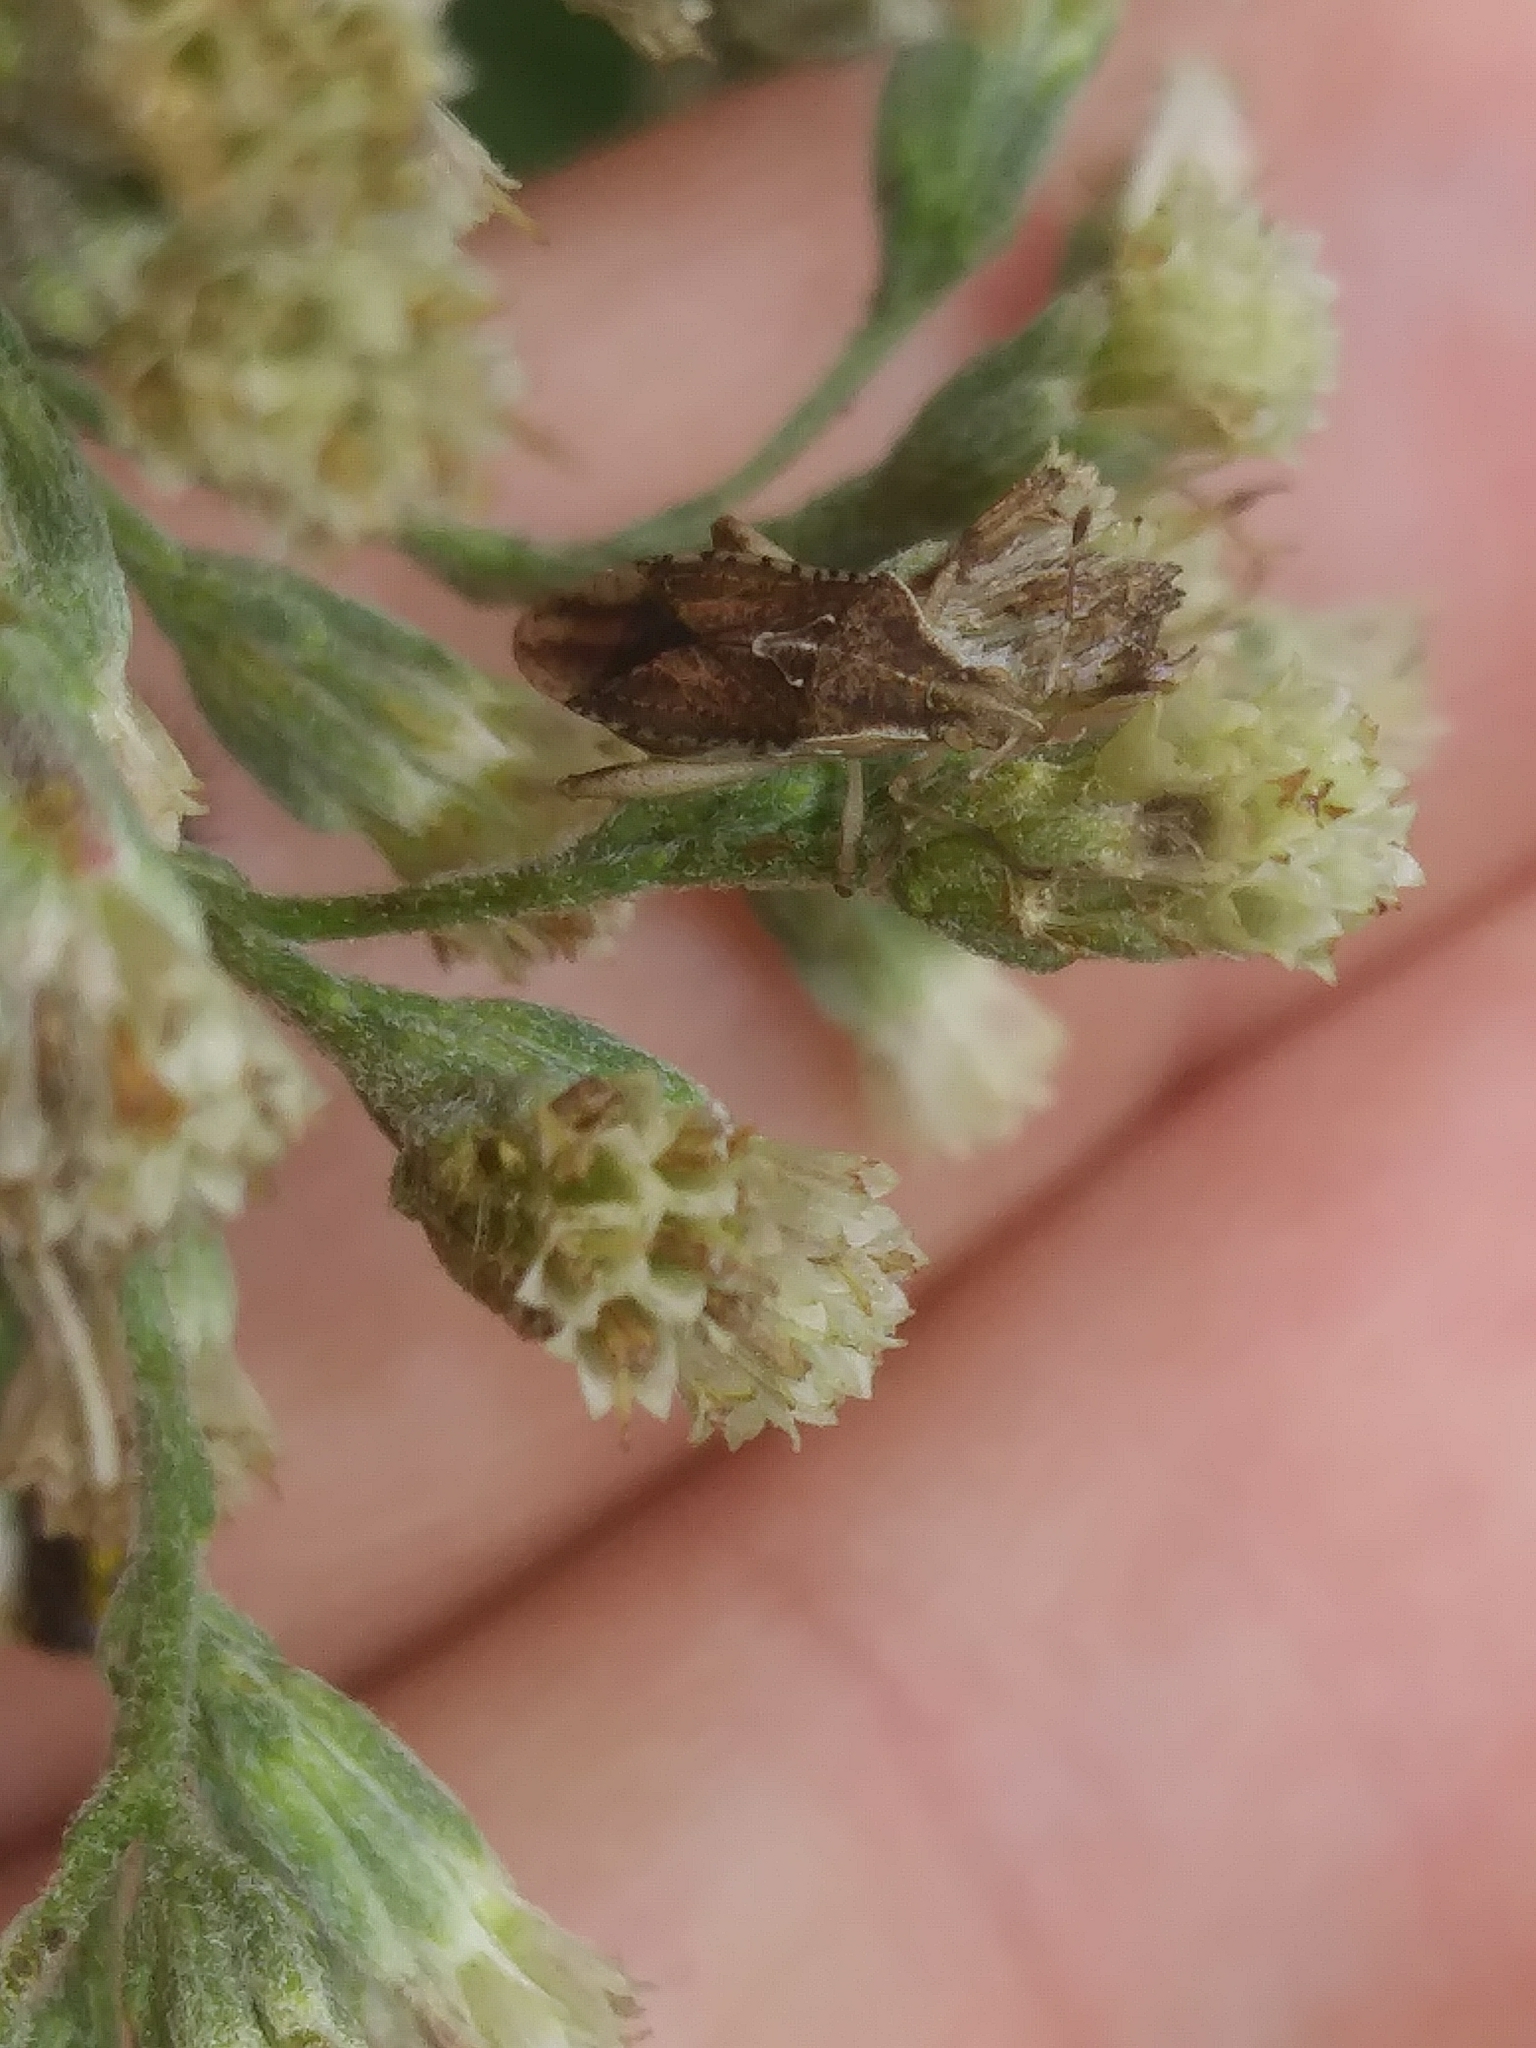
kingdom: Animalia
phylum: Arthropoda
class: Insecta
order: Hemiptera
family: Rhopalidae
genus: Harmostes
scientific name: Harmostes fraterculus
